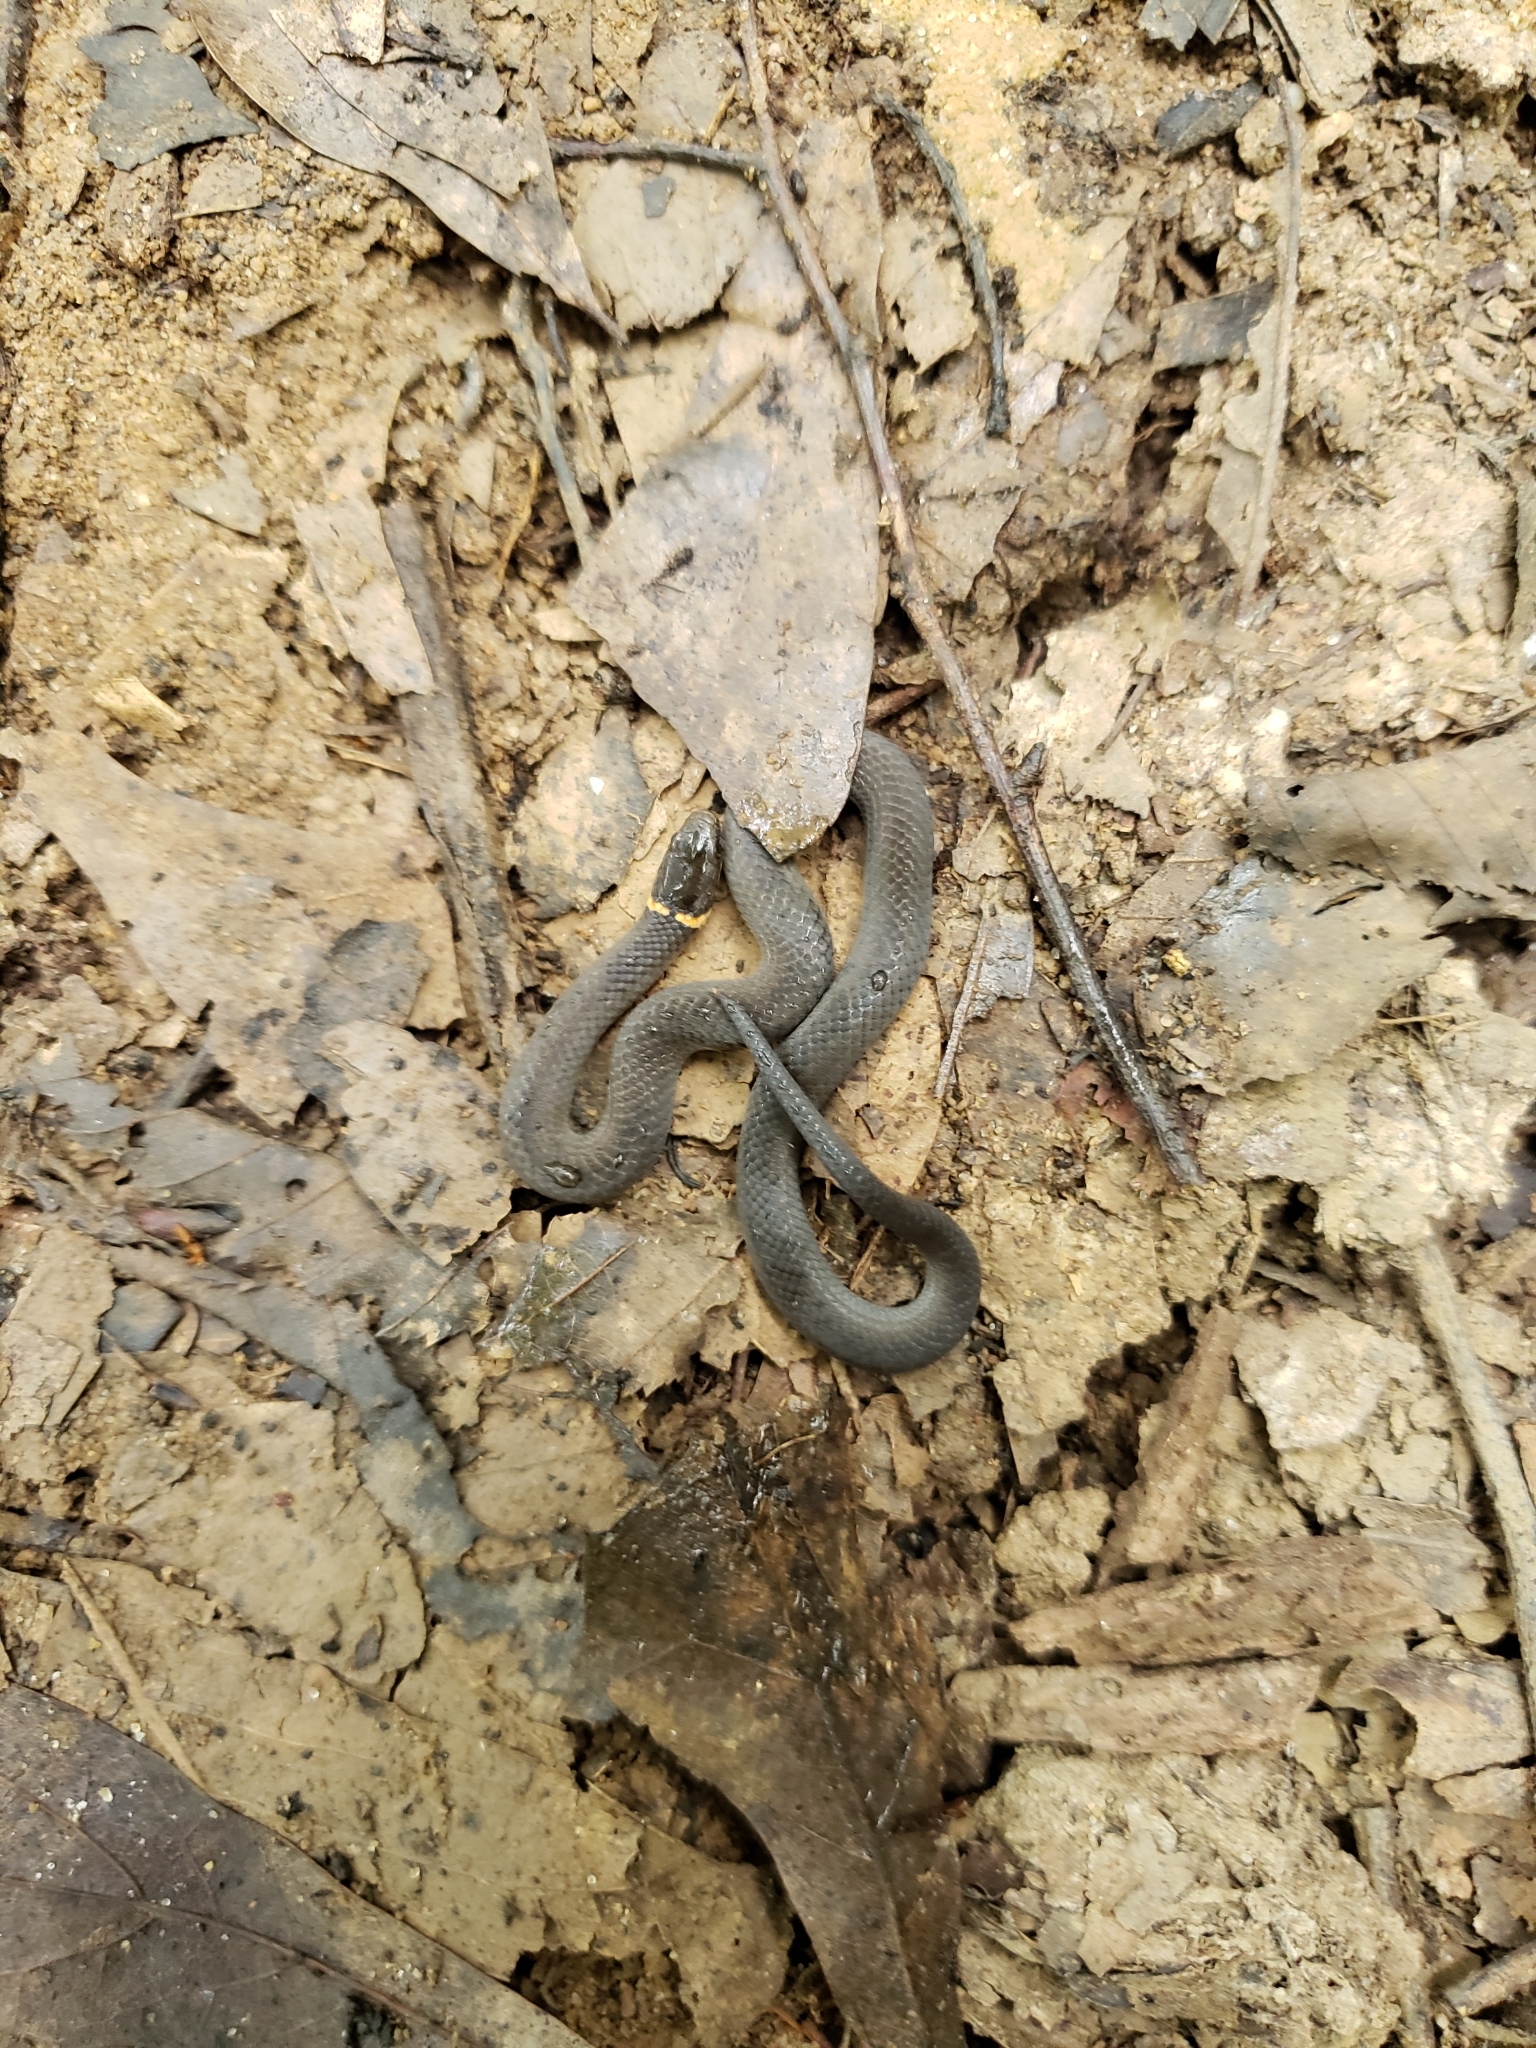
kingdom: Animalia
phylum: Chordata
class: Squamata
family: Colubridae
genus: Diadophis
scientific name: Diadophis punctatus
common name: Ringneck snake
